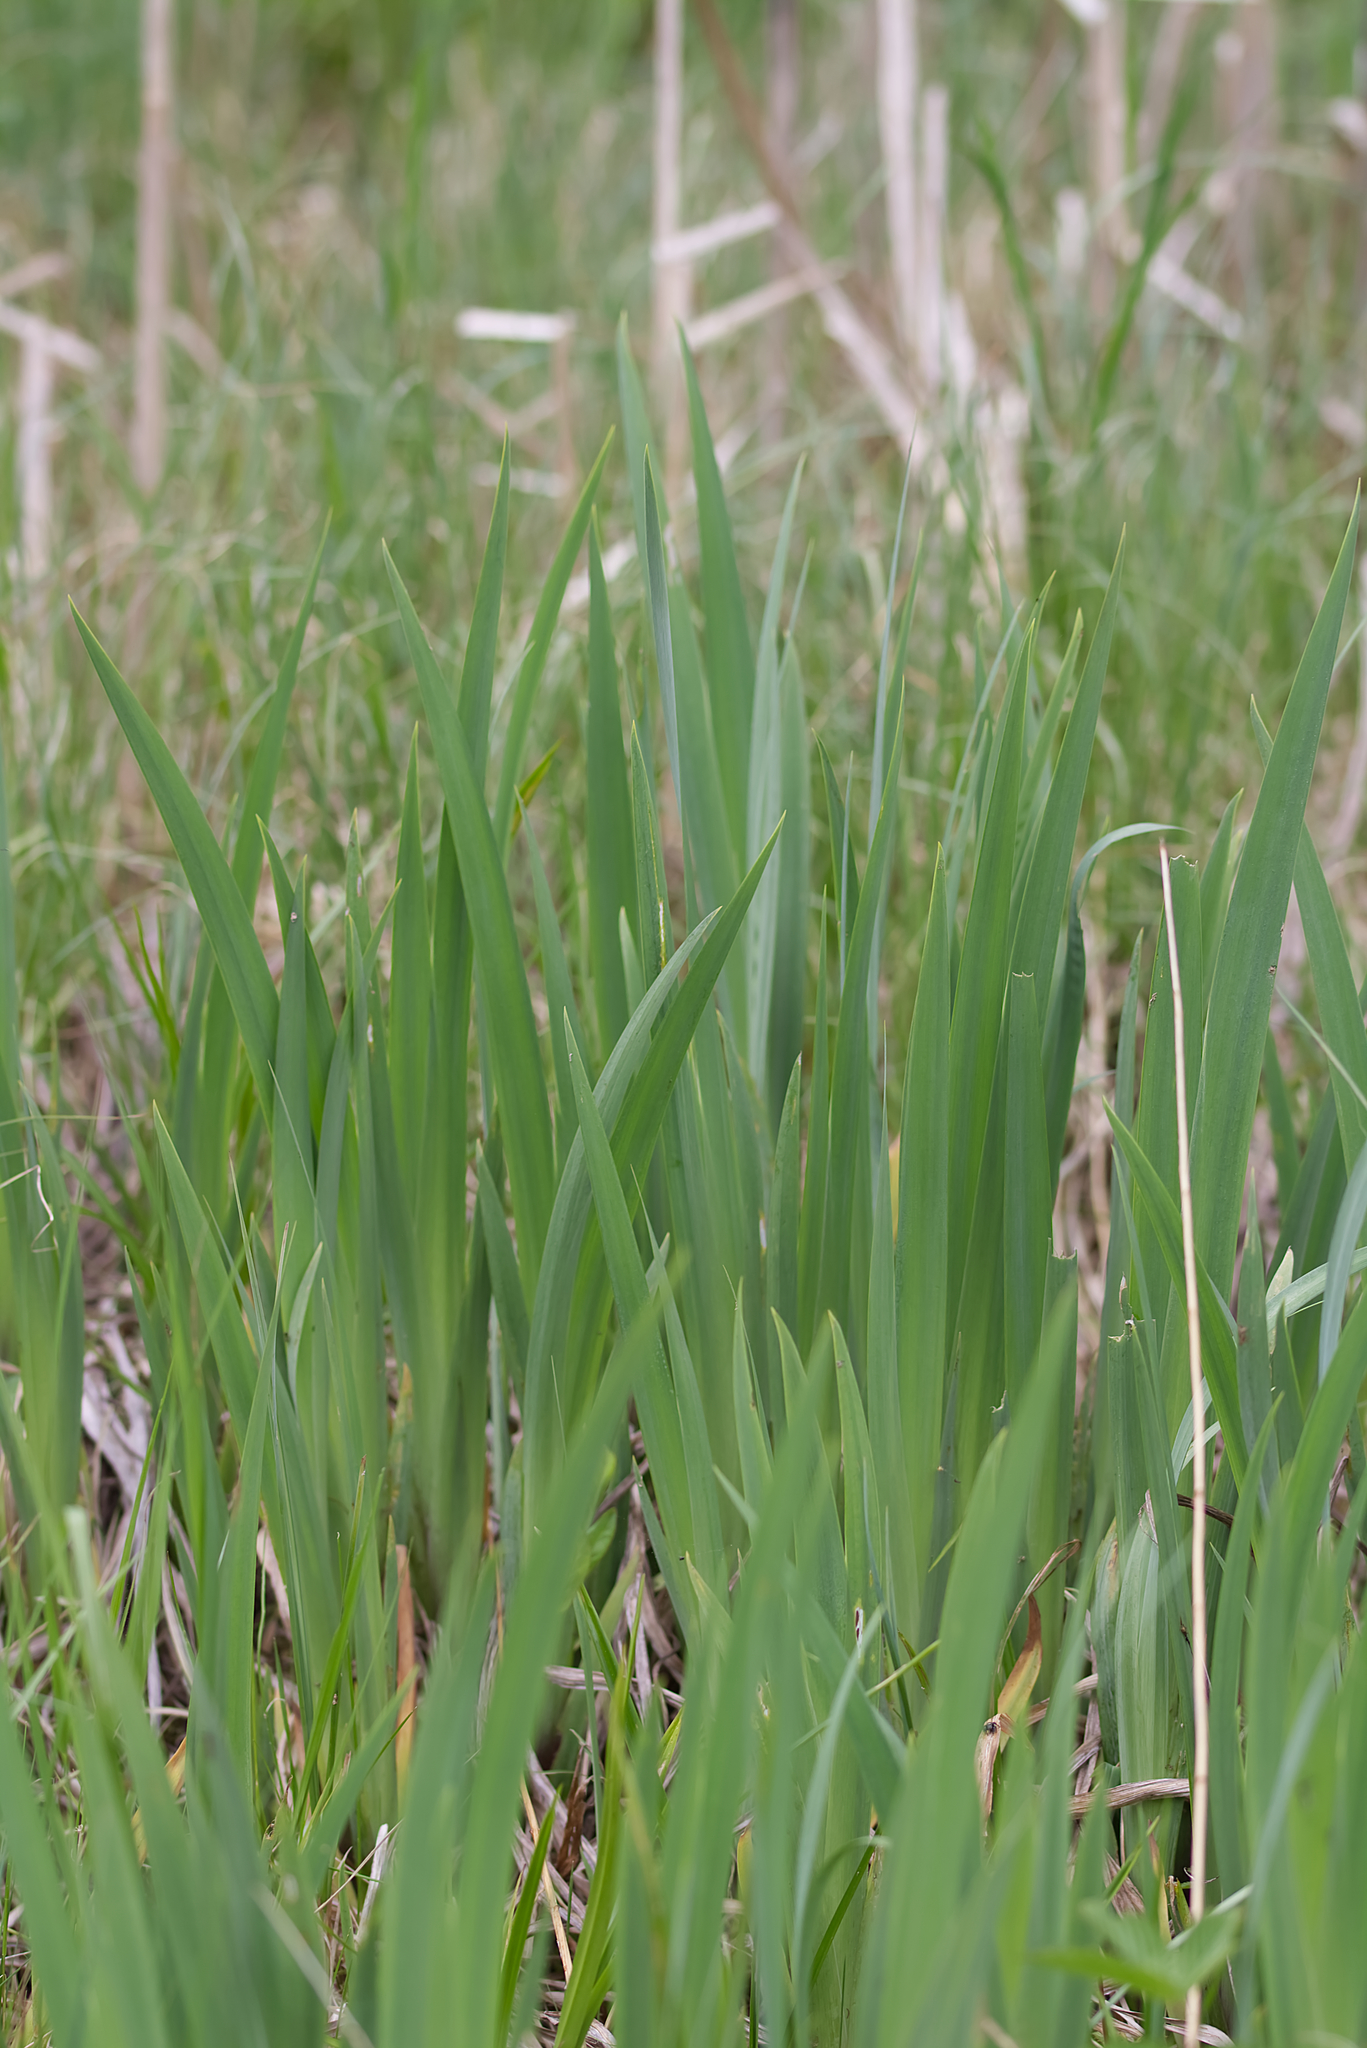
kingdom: Plantae
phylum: Tracheophyta
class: Liliopsida
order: Asparagales
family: Iridaceae
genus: Iris
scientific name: Iris pseudacorus
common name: Yellow flag
